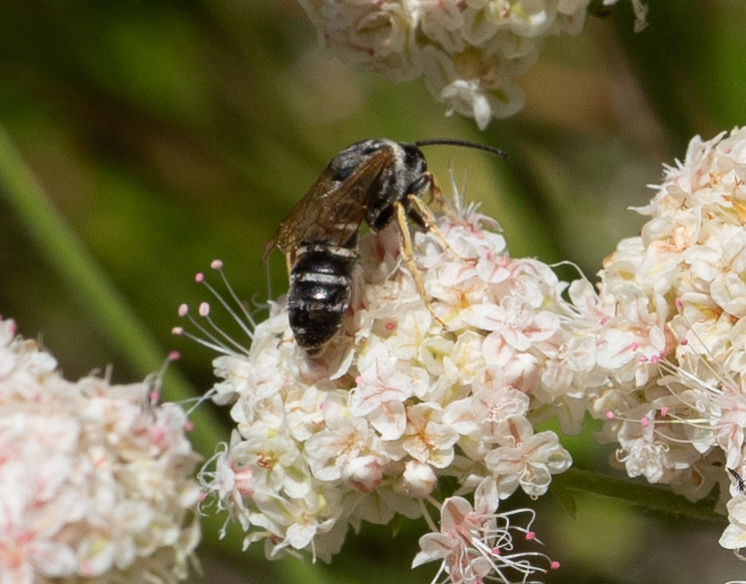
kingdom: Animalia
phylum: Arthropoda
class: Insecta
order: Hymenoptera
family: Halictidae
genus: Halictus
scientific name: Halictus farinosus
